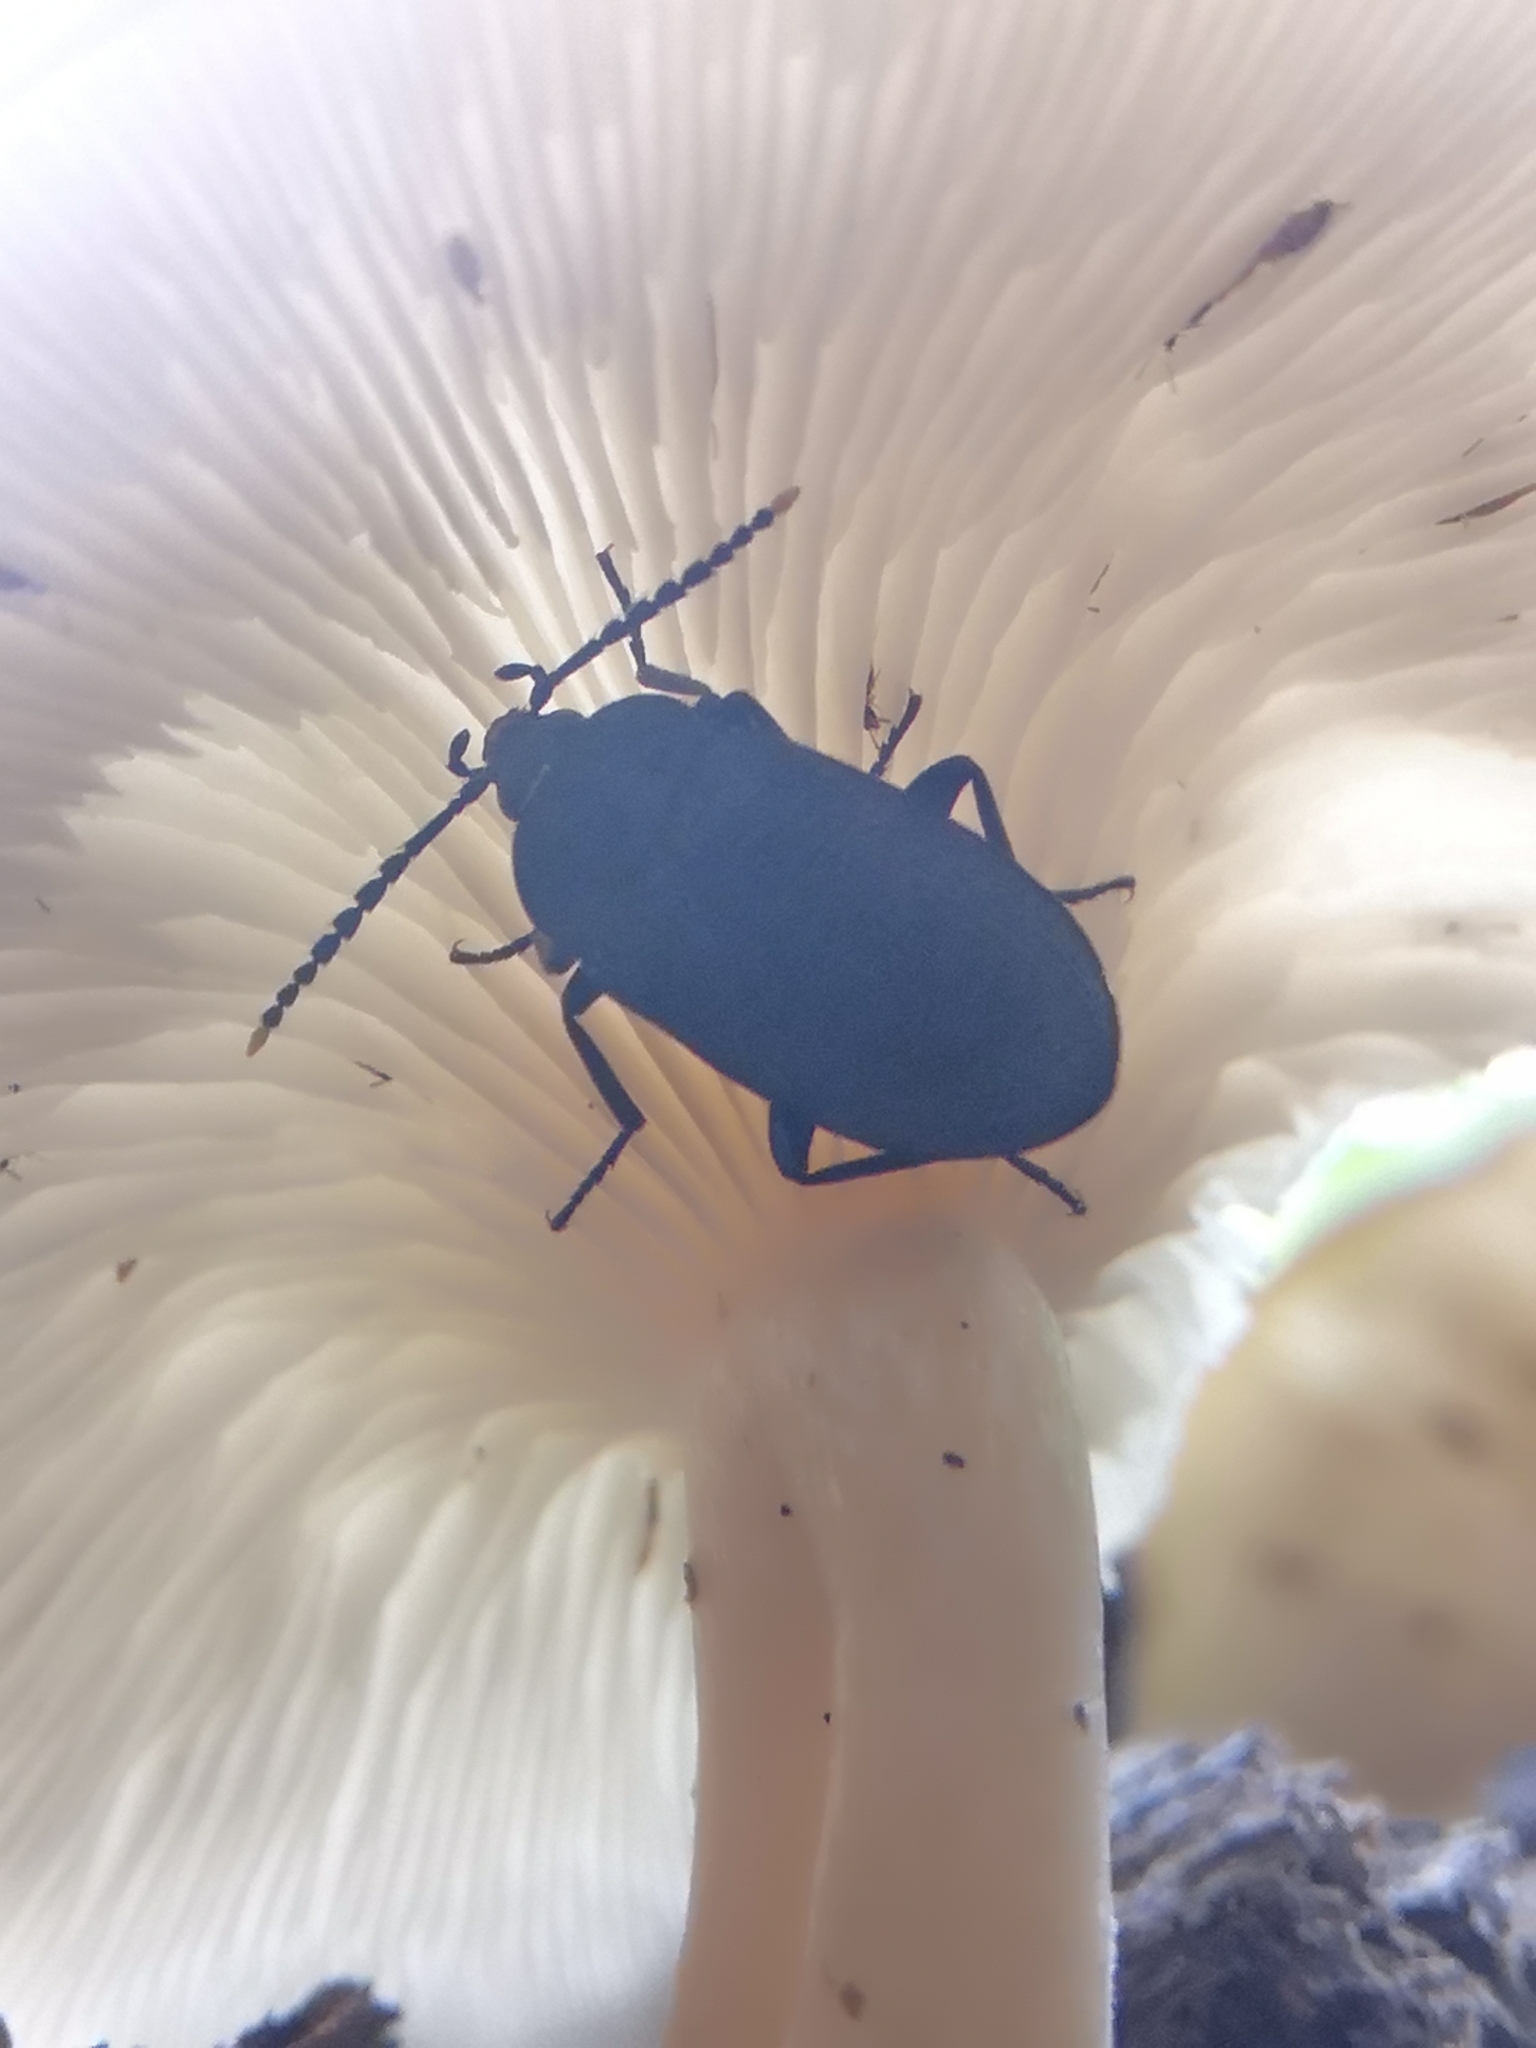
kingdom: Animalia
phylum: Arthropoda
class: Insecta
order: Coleoptera
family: Tetratomidae
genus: Penthe
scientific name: Penthe pimelia
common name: Velvety bark beetle
